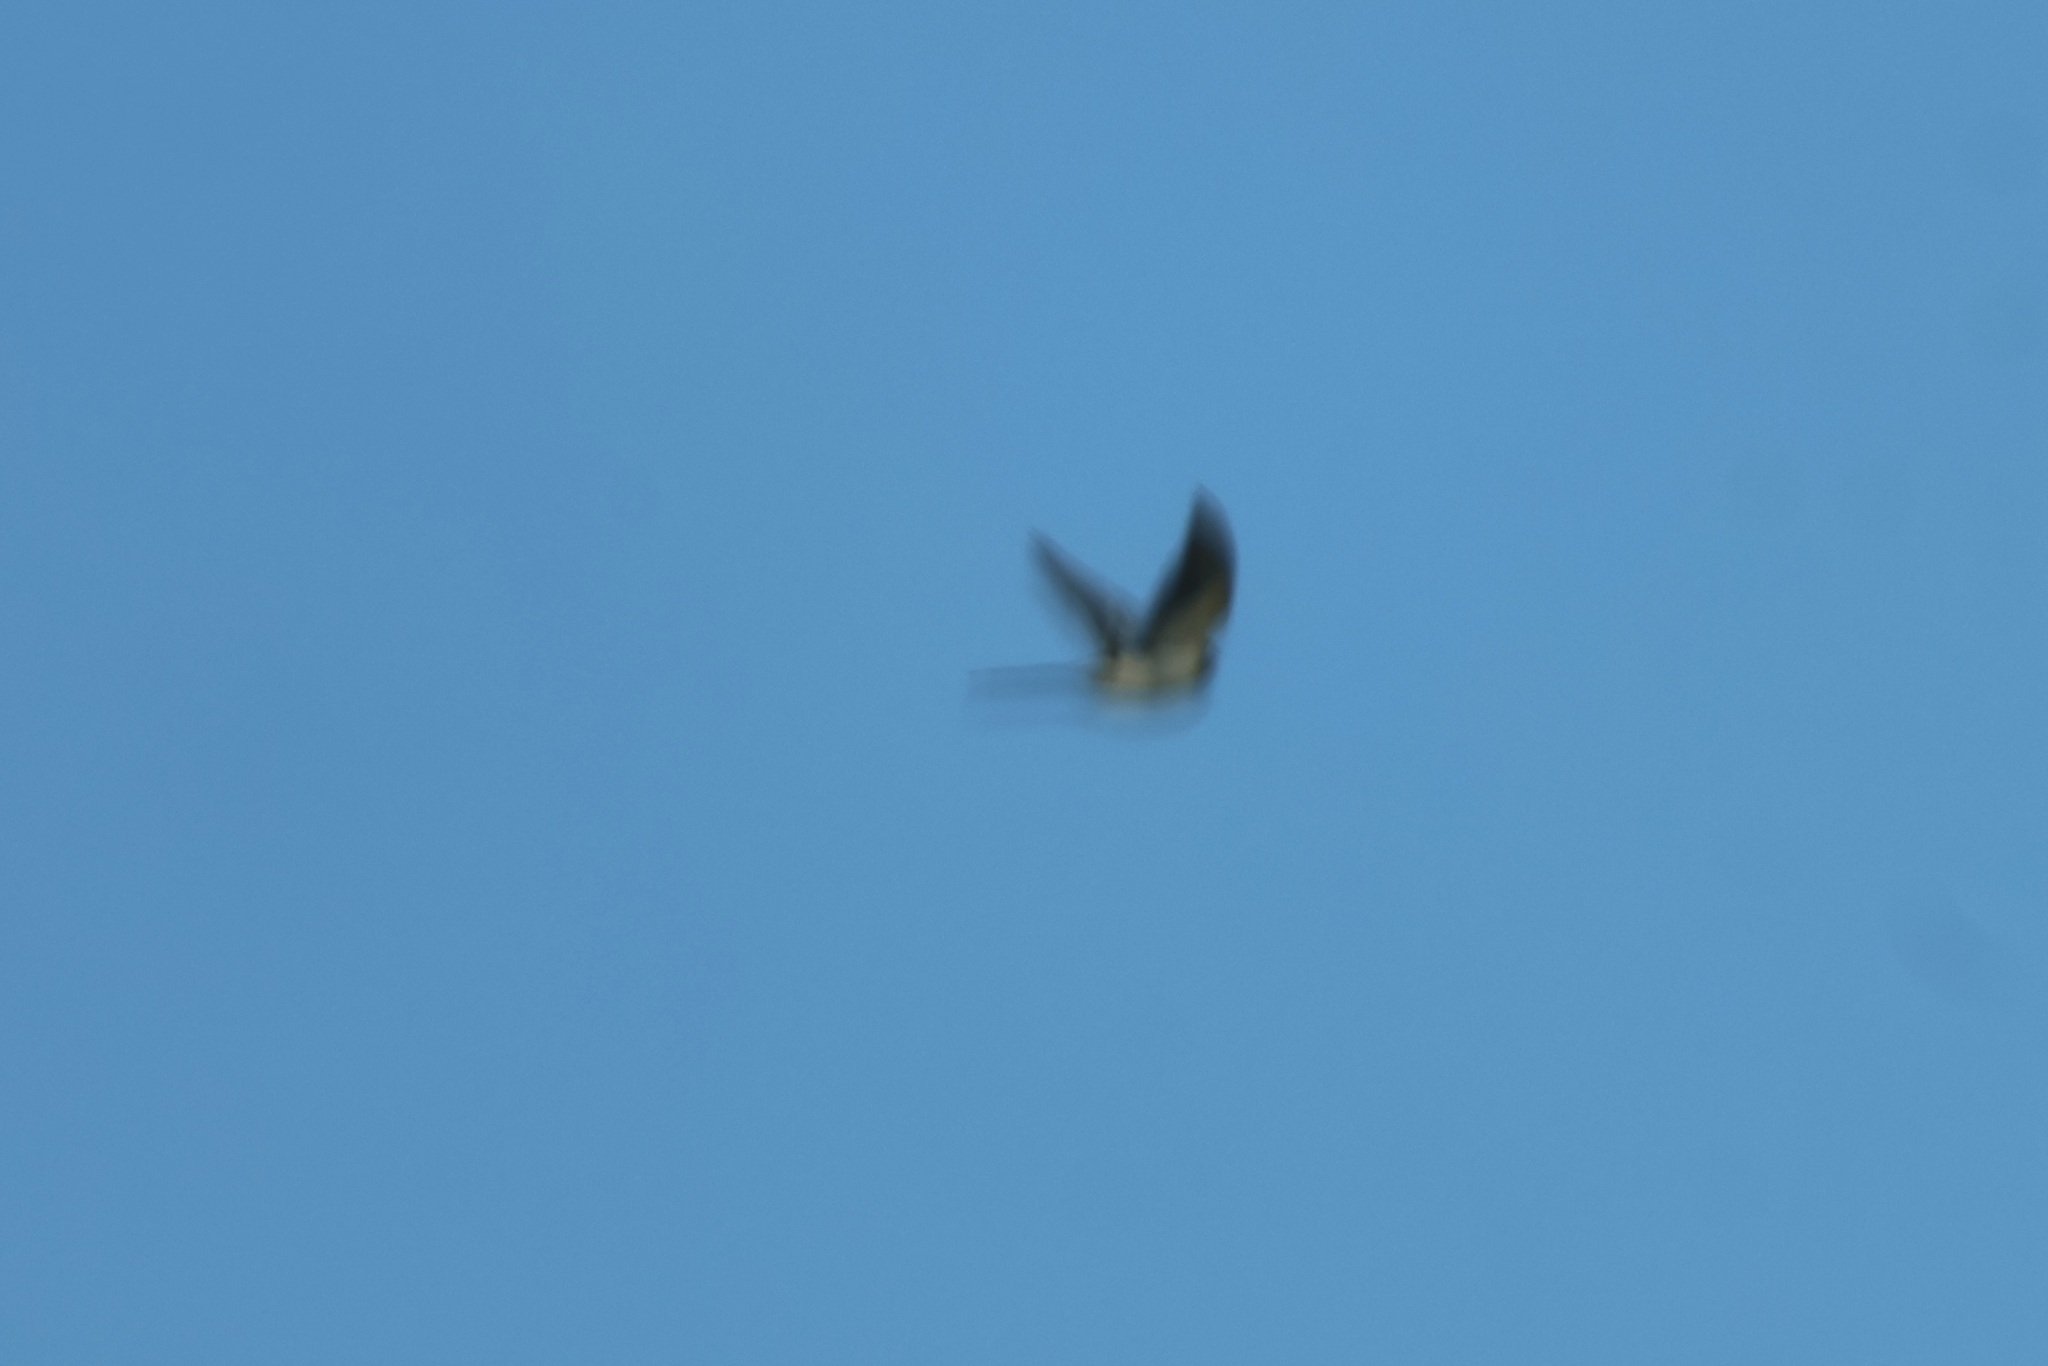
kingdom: Animalia
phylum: Chordata
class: Aves
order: Cuculiformes
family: Cuculidae
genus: Clamator
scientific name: Clamator glandarius
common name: Great spotted cuckoo
